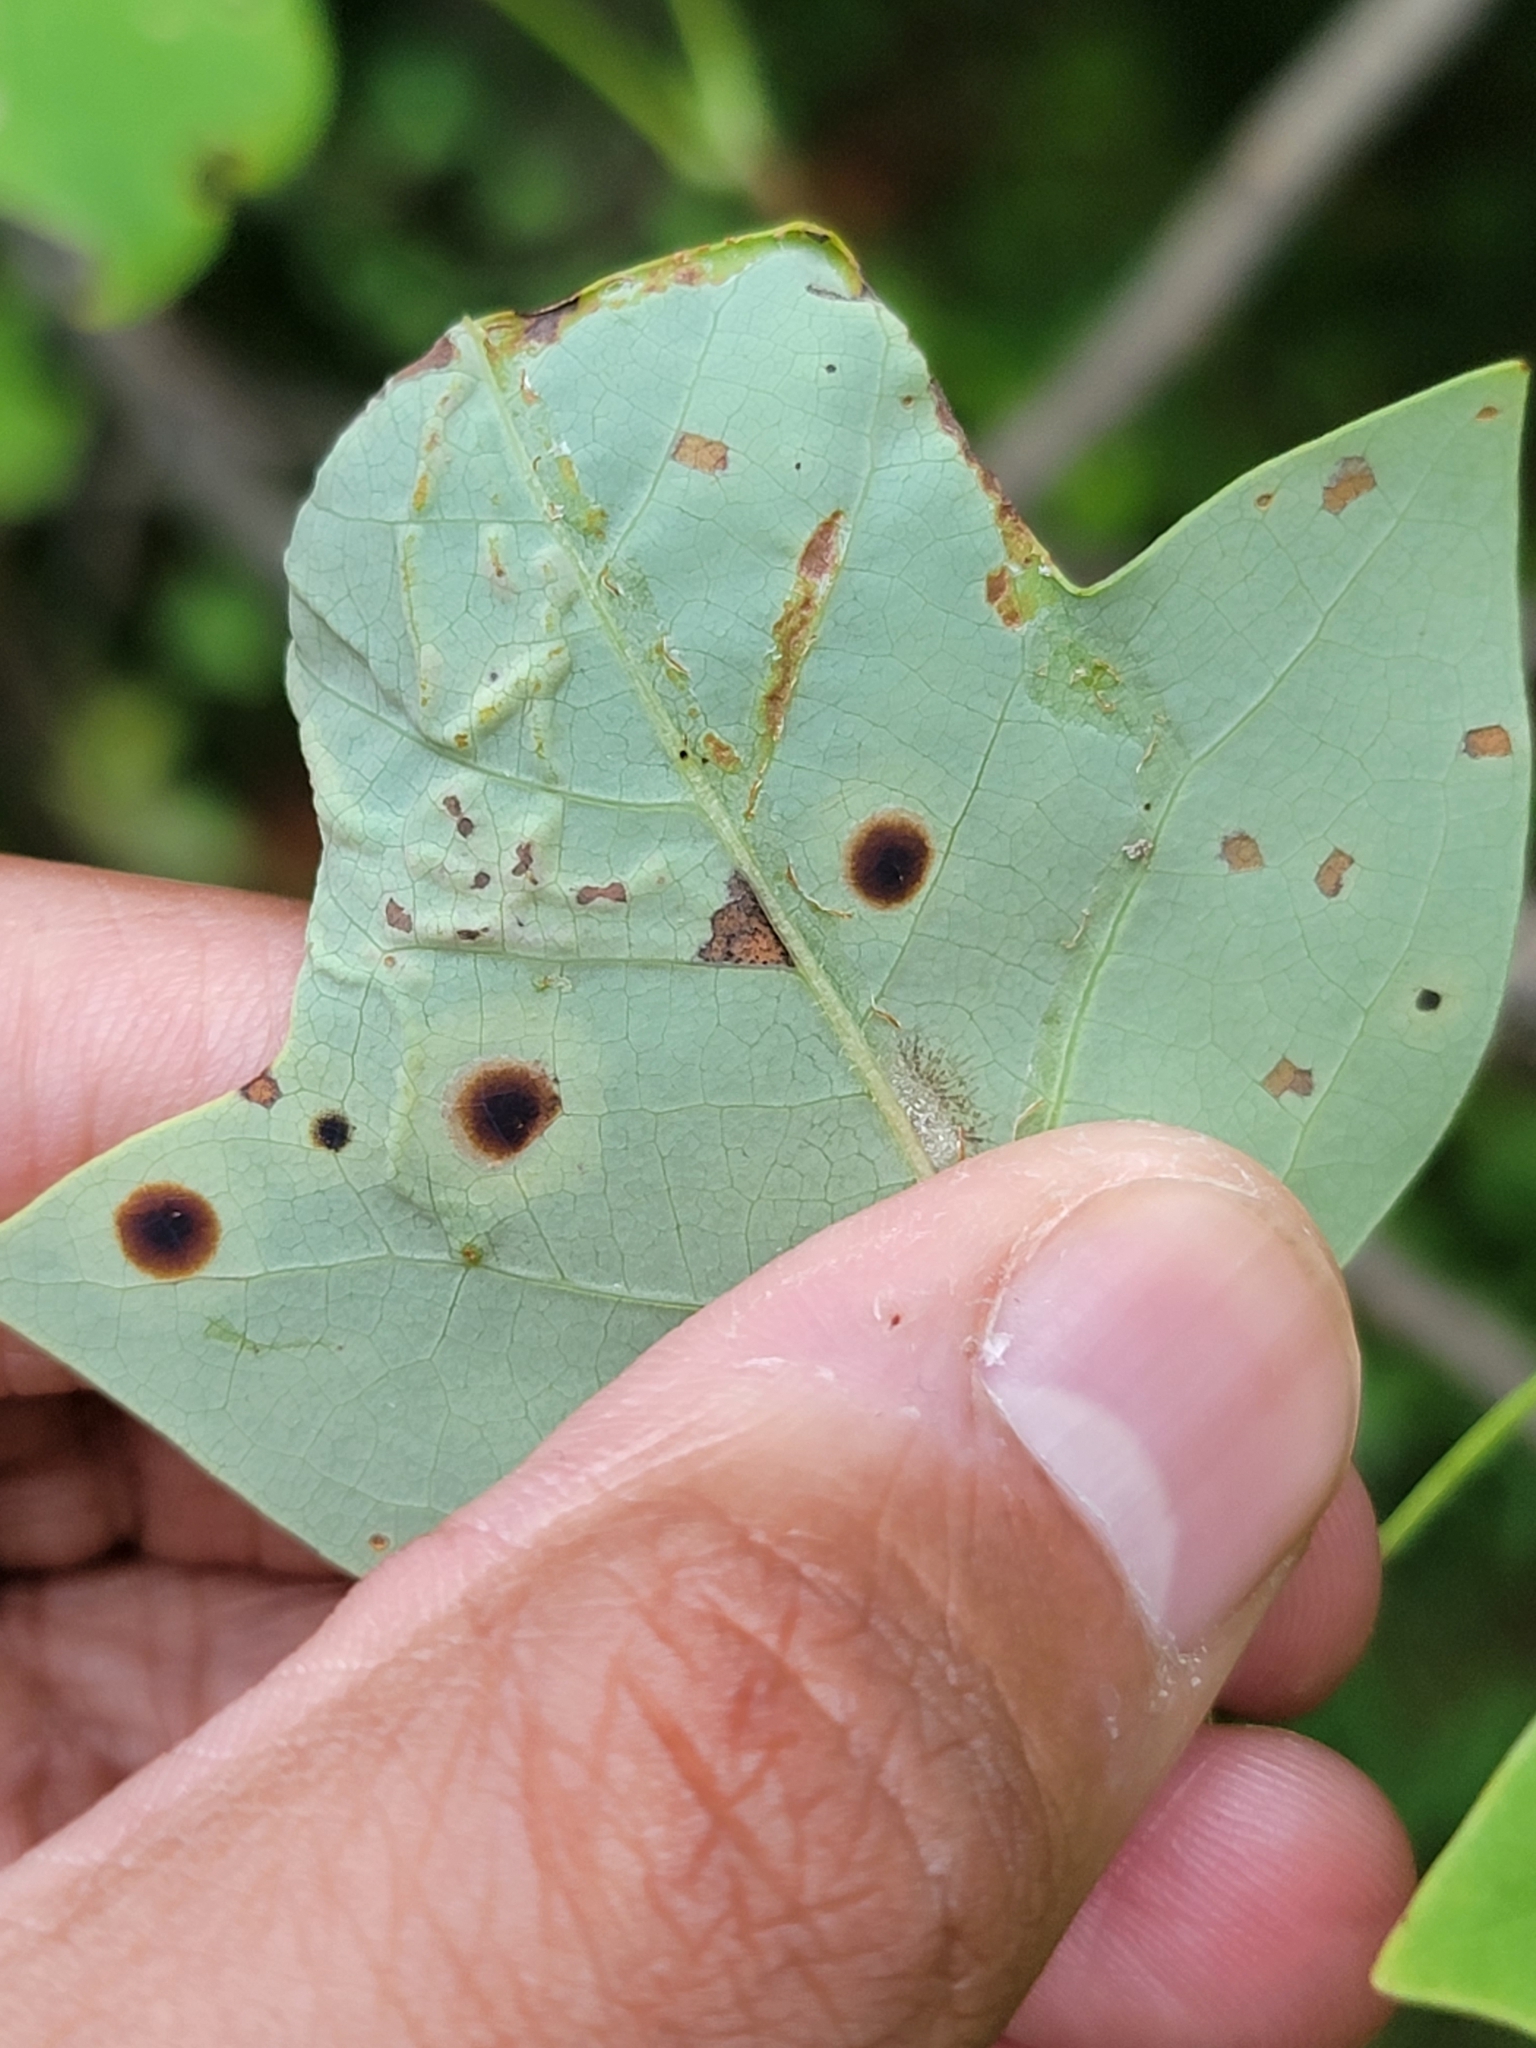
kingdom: Animalia
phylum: Arthropoda
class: Insecta
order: Lepidoptera
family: Gracillariidae
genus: Phyllocnistis
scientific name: Phyllocnistis liriodendronella
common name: Tulip tree leaf miner
